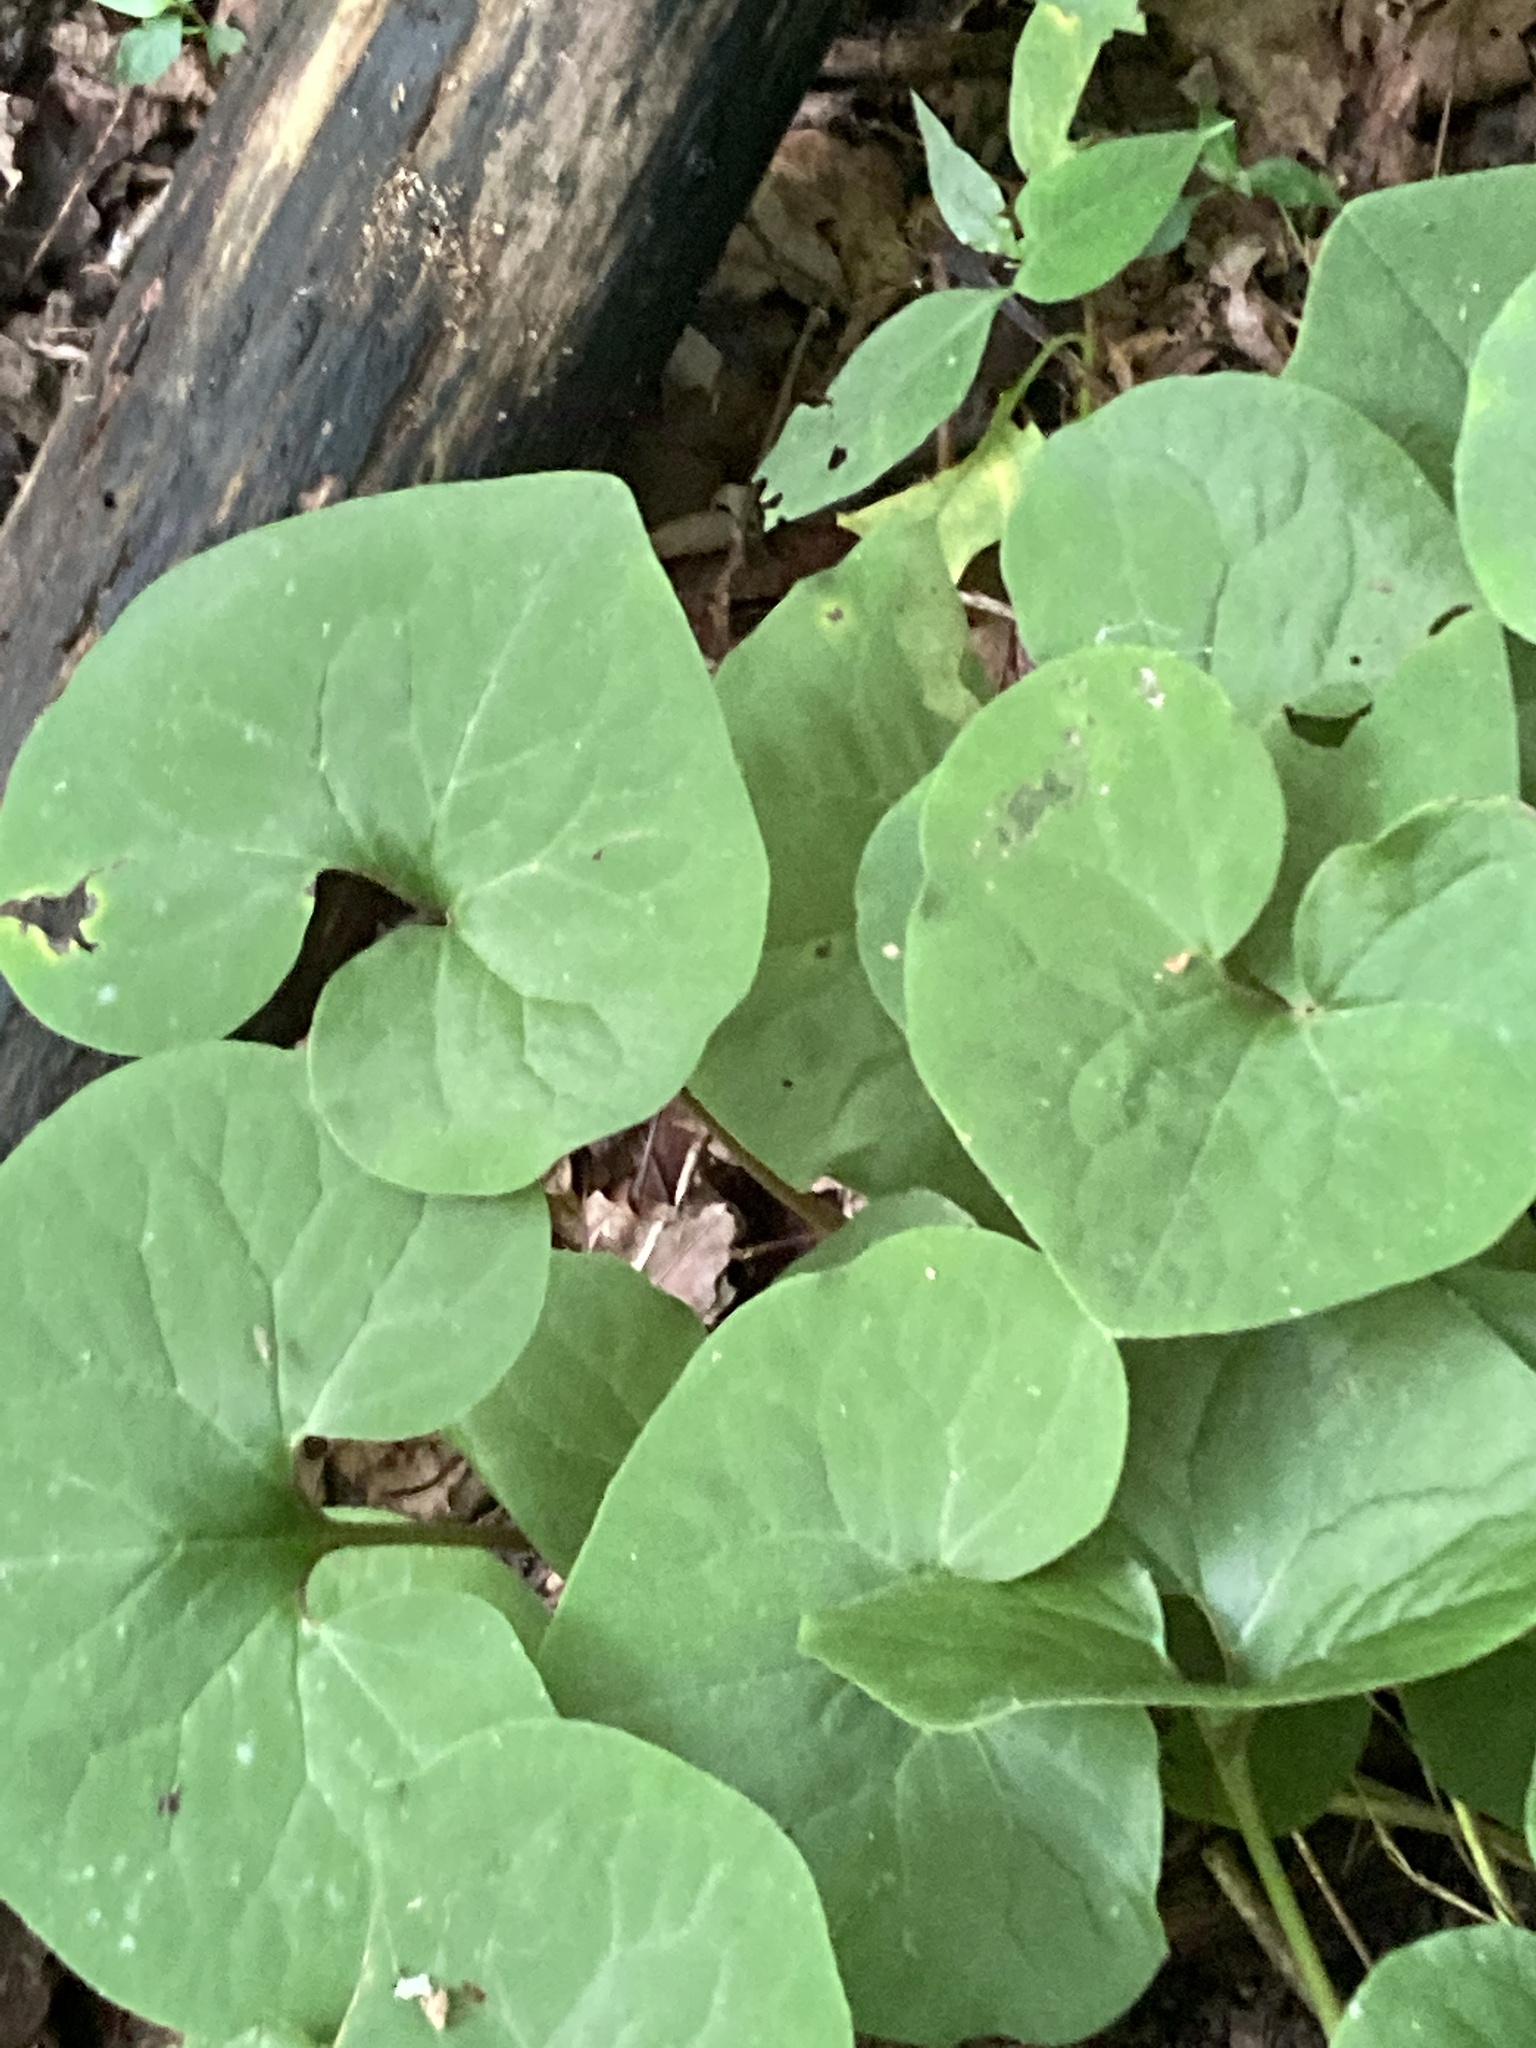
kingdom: Plantae
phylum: Tracheophyta
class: Magnoliopsida
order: Piperales
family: Aristolochiaceae
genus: Asarum
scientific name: Asarum canadense
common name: Wild ginger
